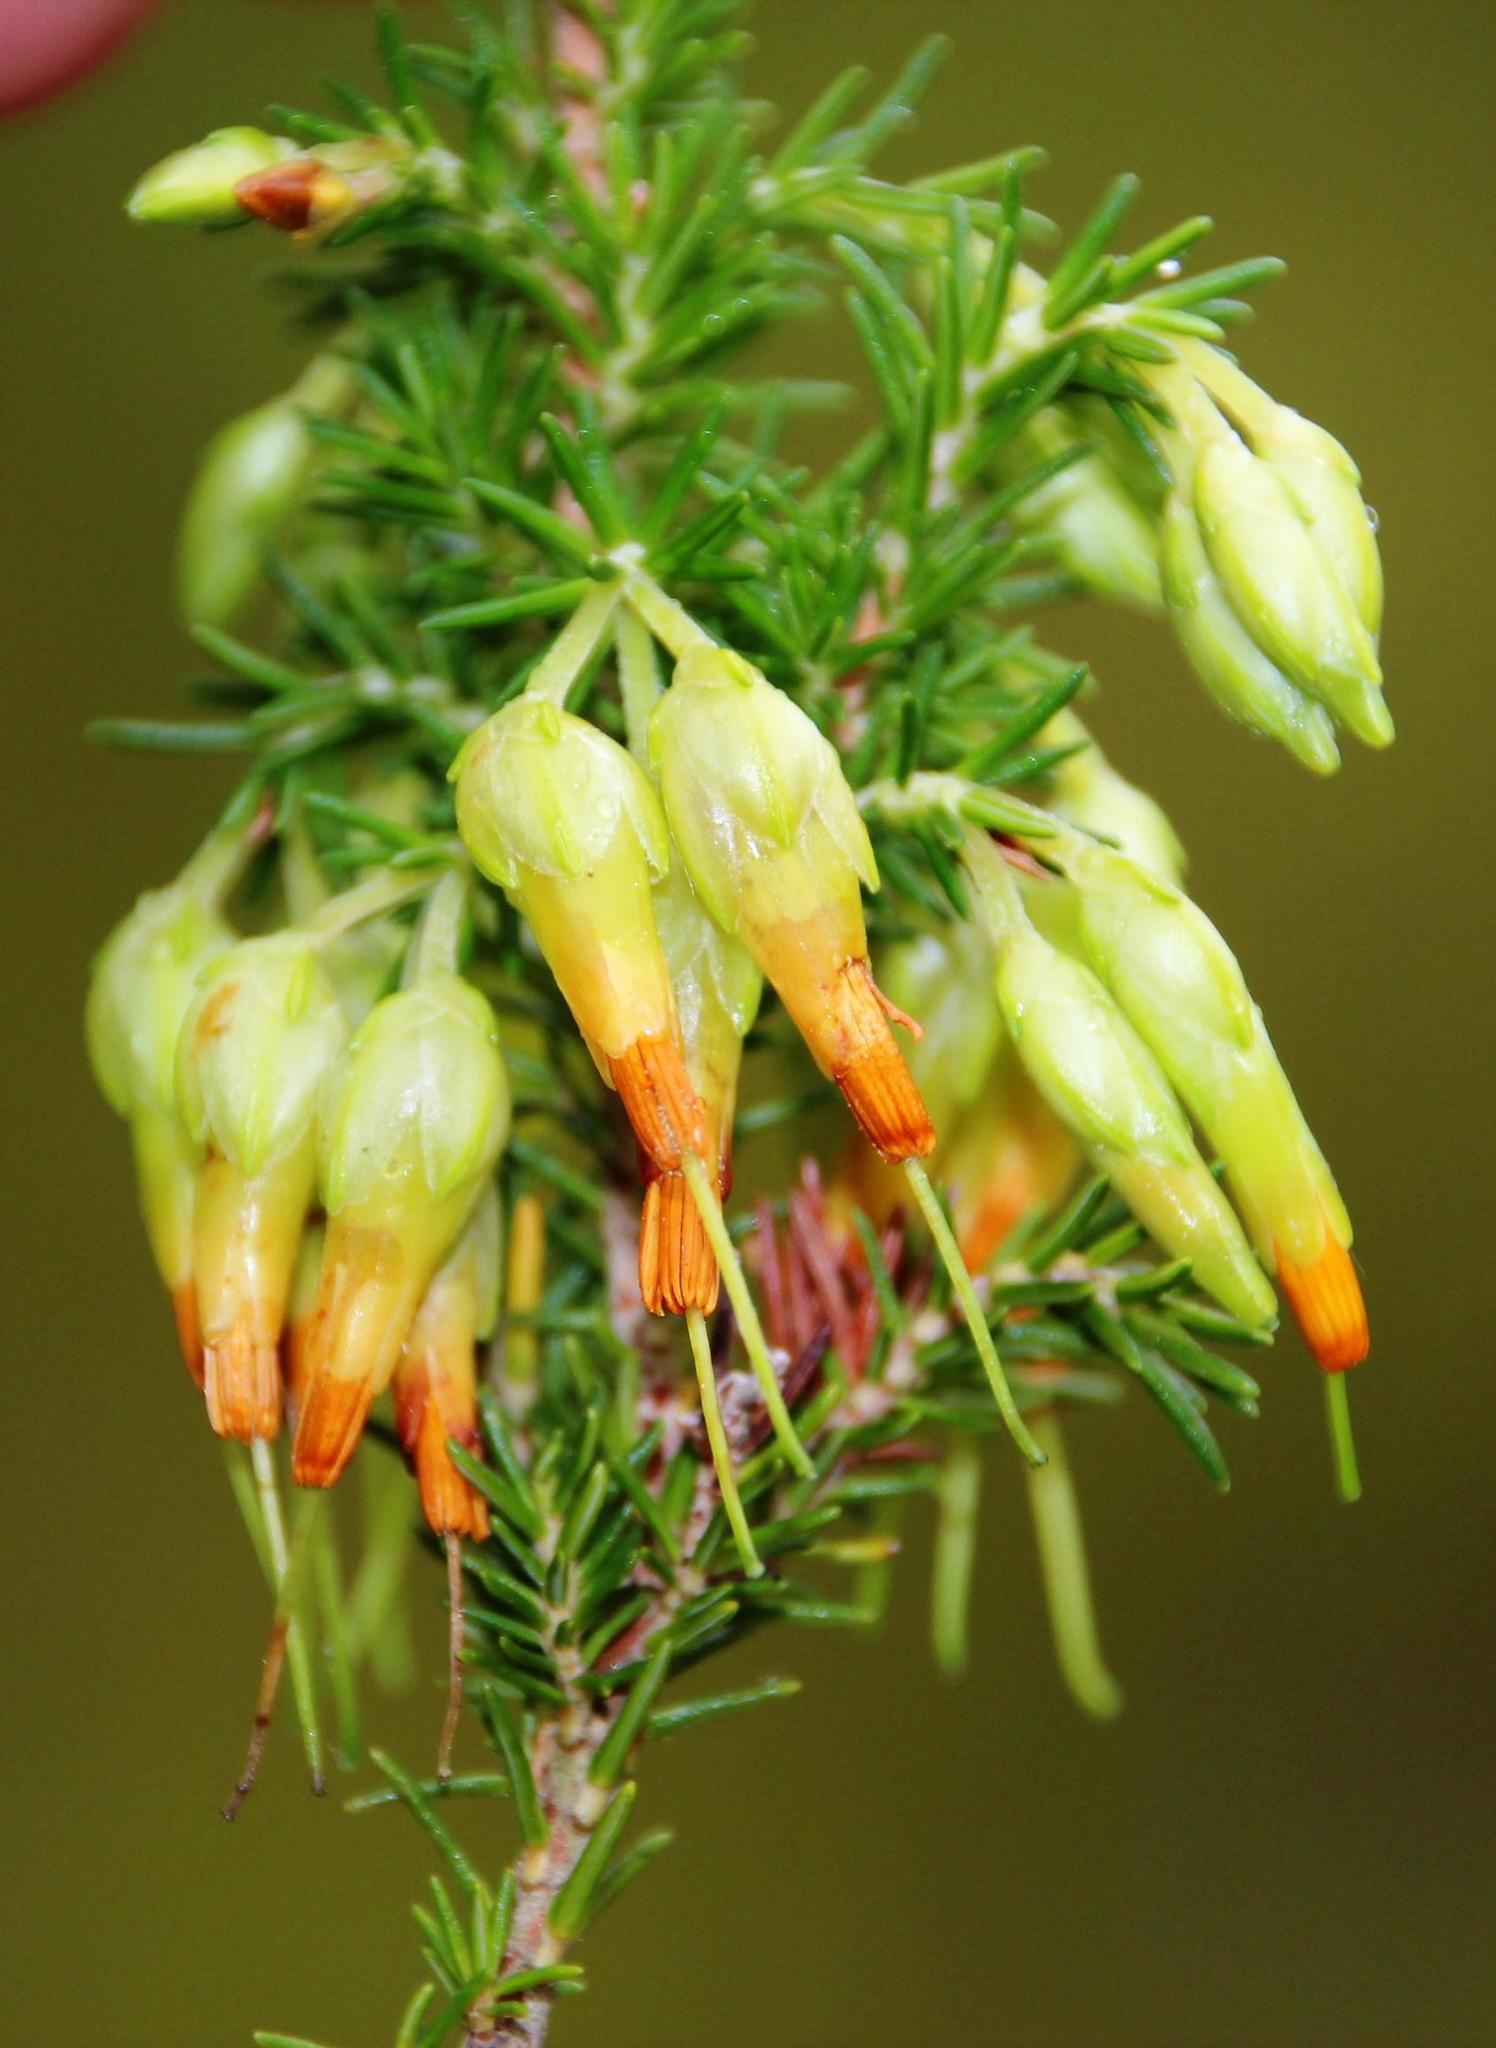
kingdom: Plantae
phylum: Tracheophyta
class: Magnoliopsida
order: Ericales
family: Ericaceae
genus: Erica
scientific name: Erica coccinea
